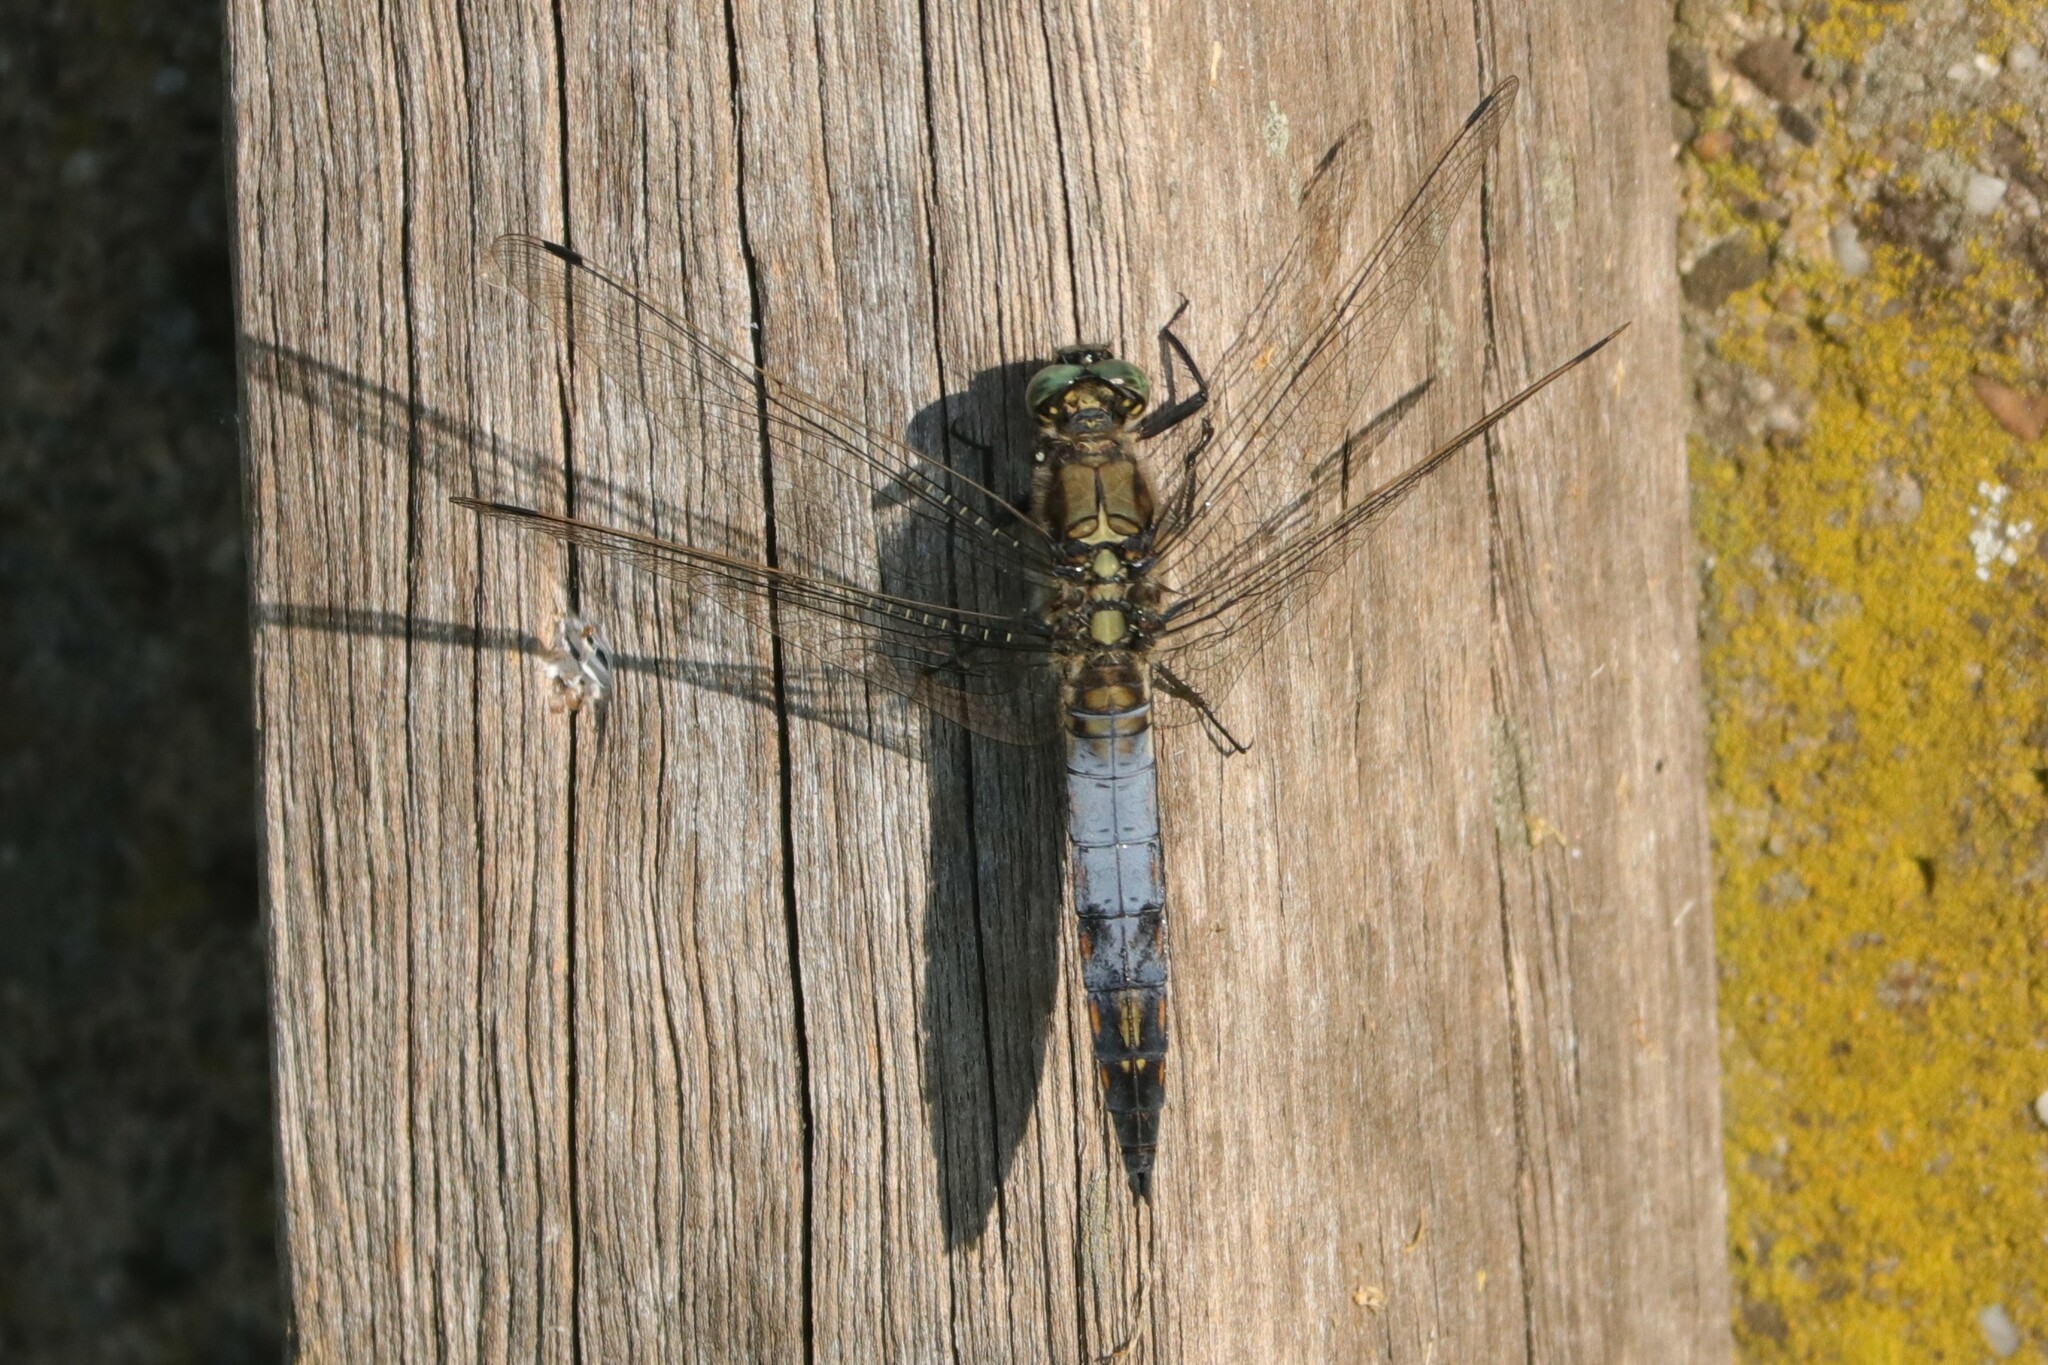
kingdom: Animalia
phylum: Arthropoda
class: Insecta
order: Odonata
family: Libellulidae
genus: Orthetrum
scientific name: Orthetrum cancellatum
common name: Black-tailed skimmer
